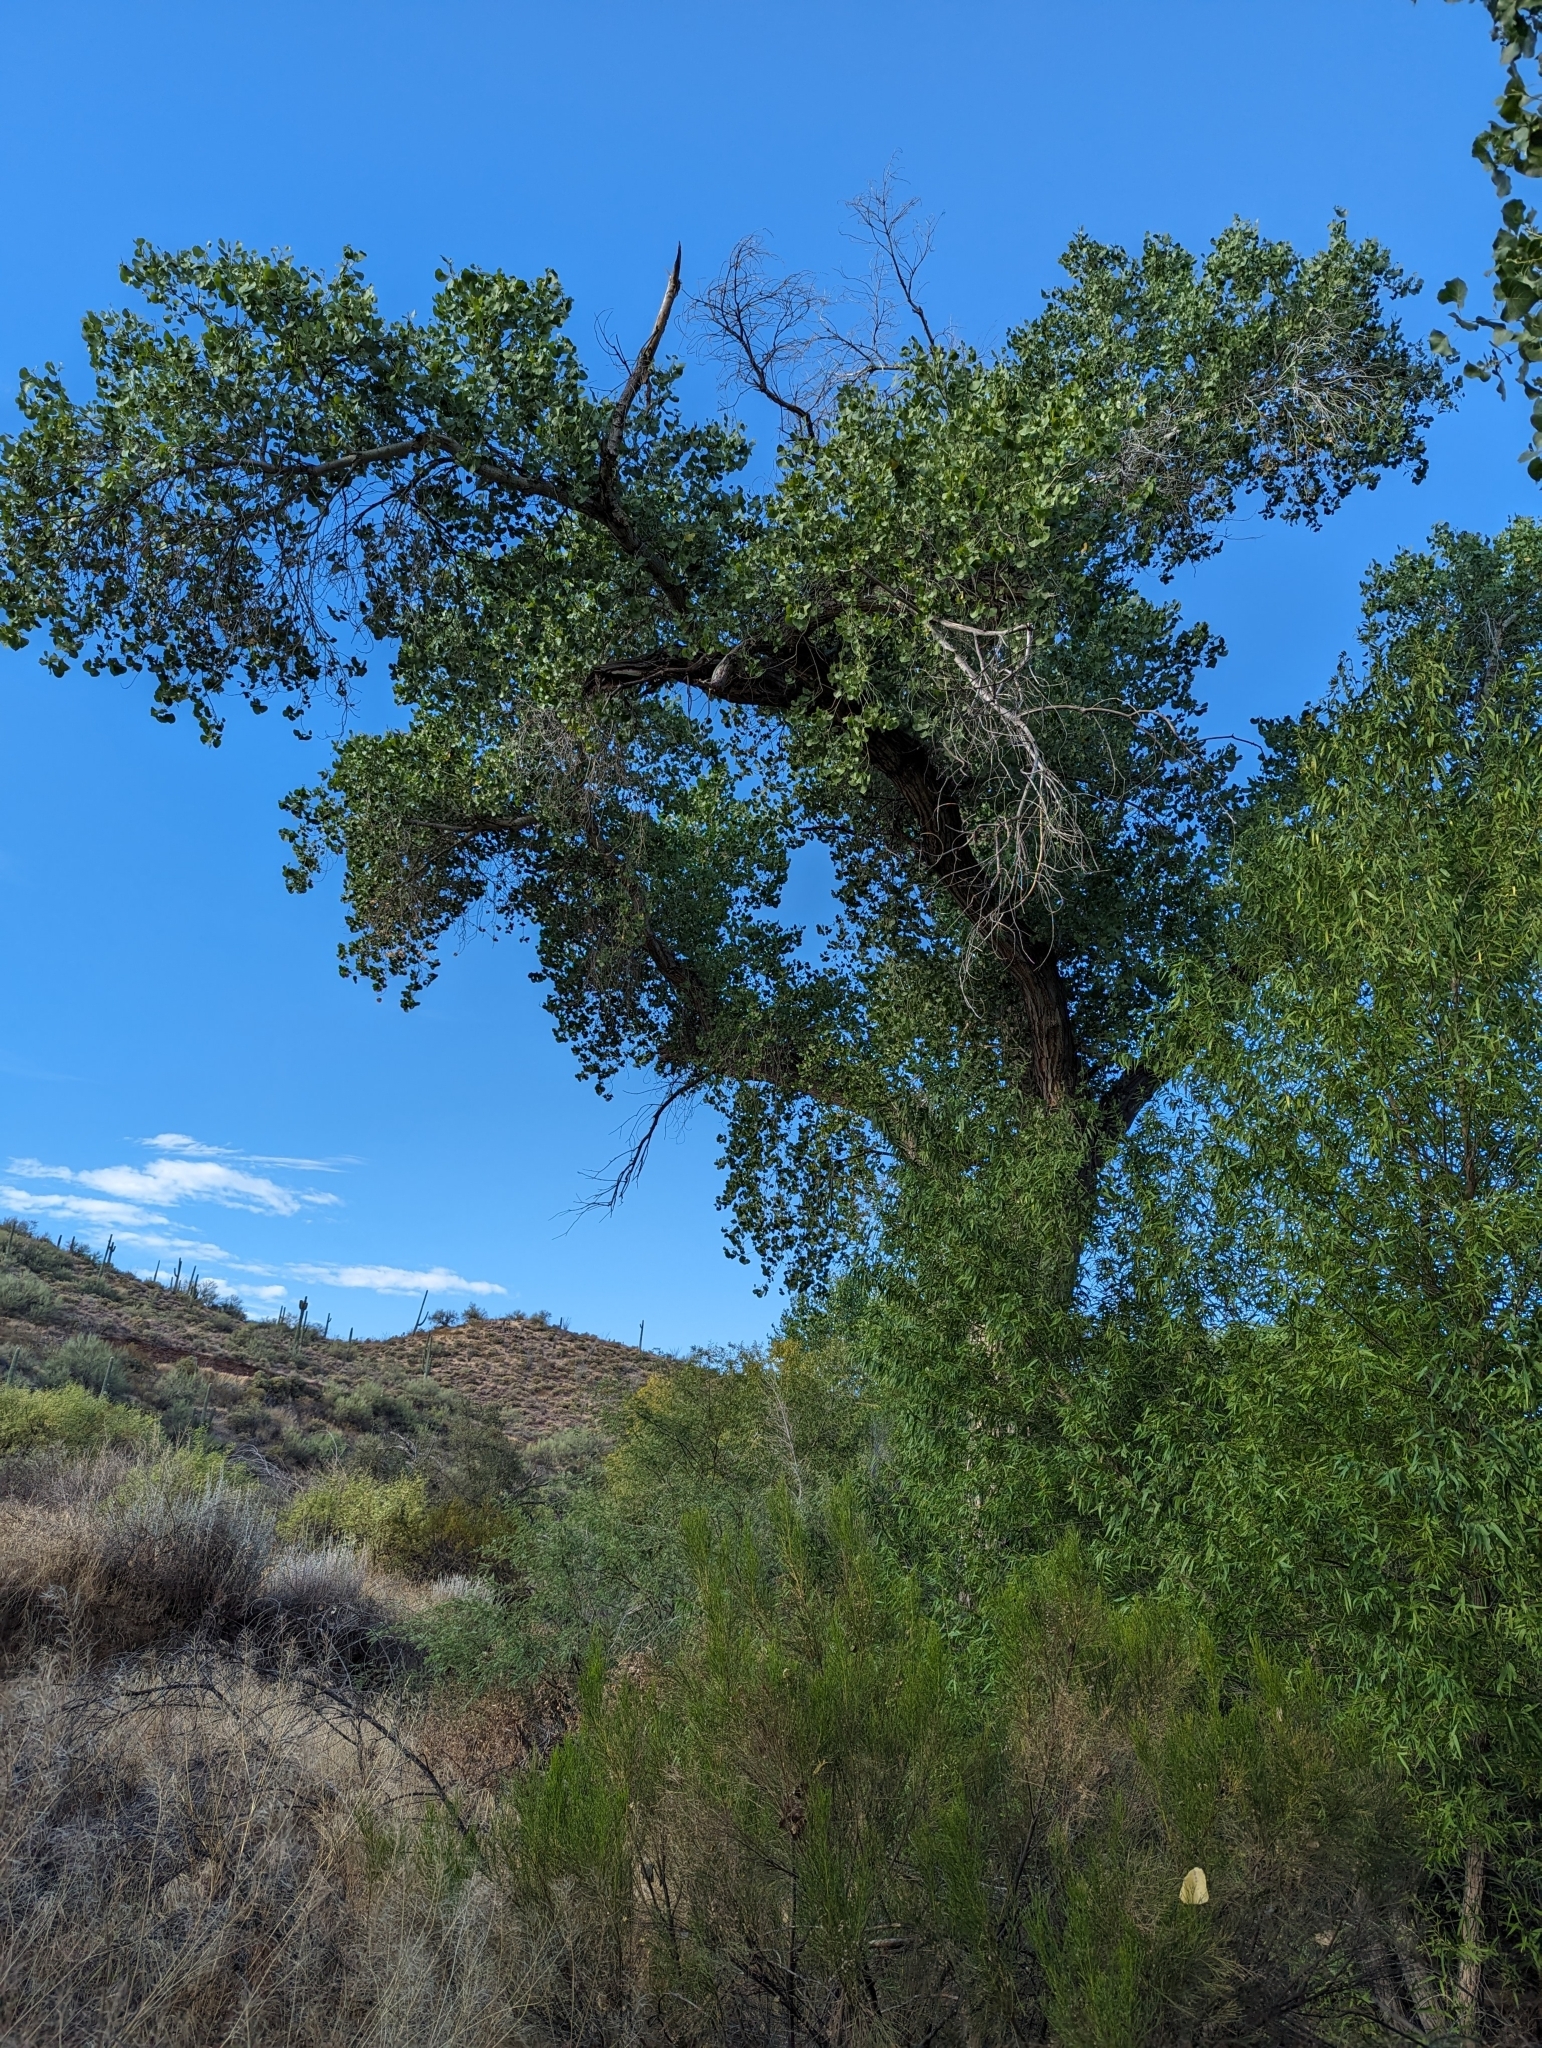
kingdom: Plantae
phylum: Tracheophyta
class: Magnoliopsida
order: Malpighiales
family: Salicaceae
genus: Populus
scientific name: Populus fremontii
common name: Fremont's cottonwood
